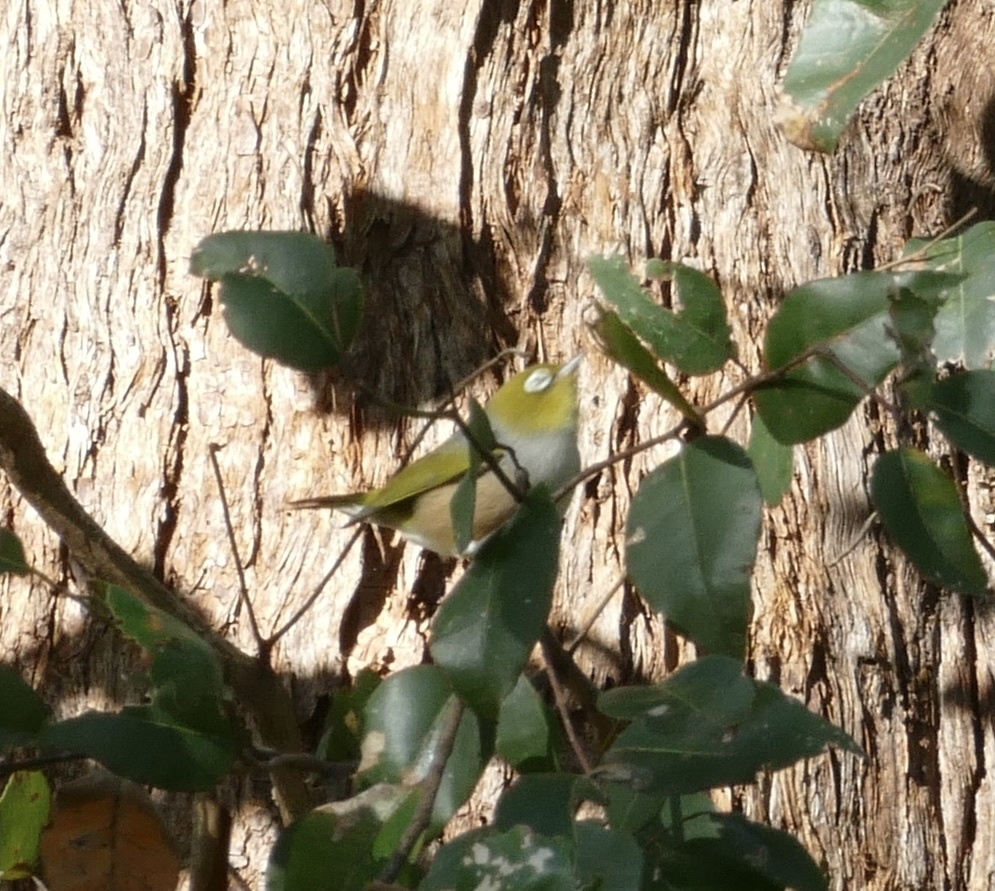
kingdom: Animalia
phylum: Chordata
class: Aves
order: Passeriformes
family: Zosteropidae
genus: Zosterops
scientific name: Zosterops lateralis
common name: Silvereye
